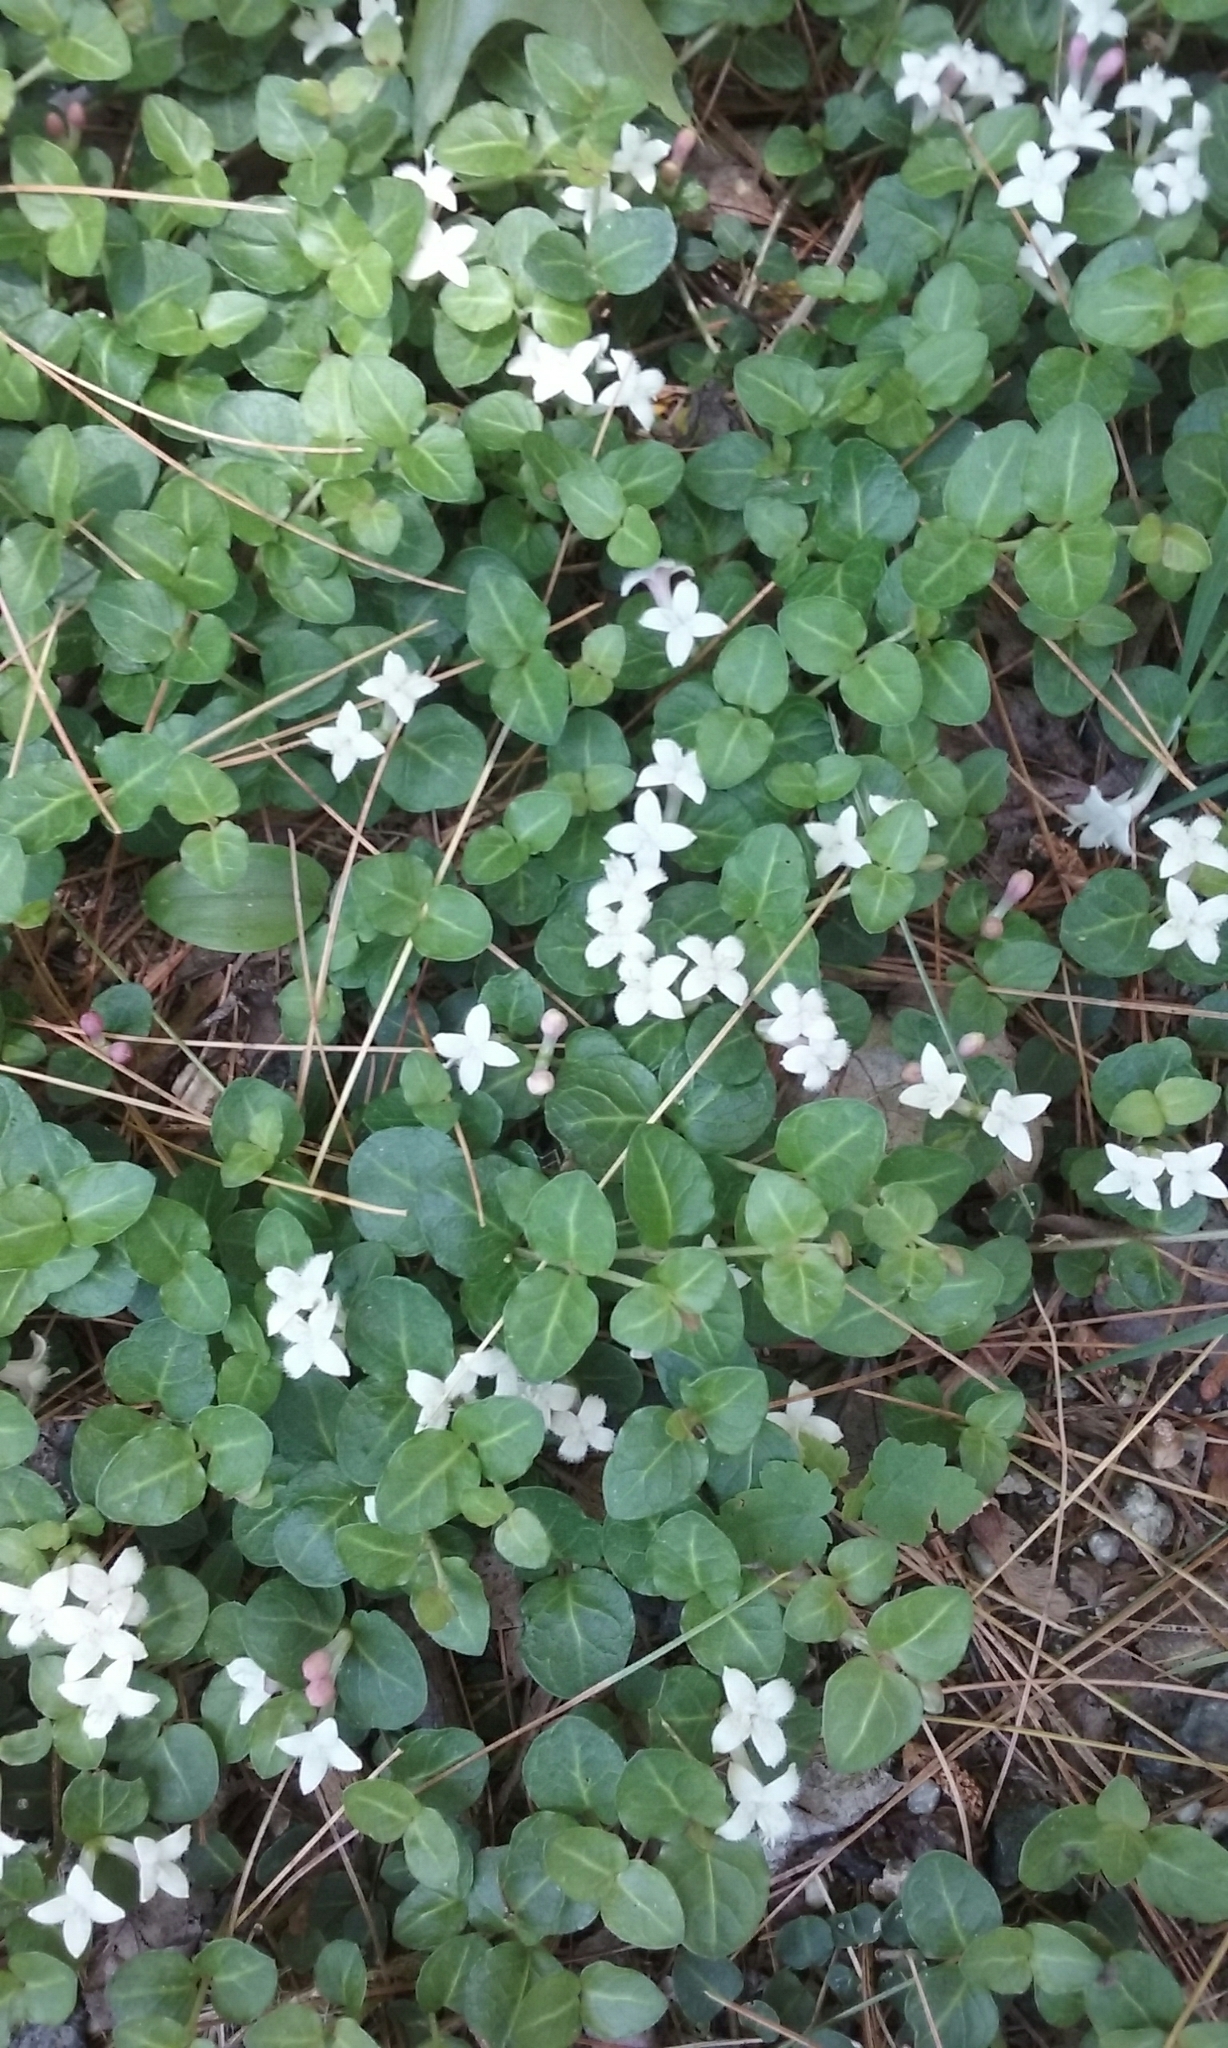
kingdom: Plantae
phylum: Tracheophyta
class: Magnoliopsida
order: Gentianales
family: Rubiaceae
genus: Mitchella
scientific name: Mitchella repens
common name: Partridge-berry
